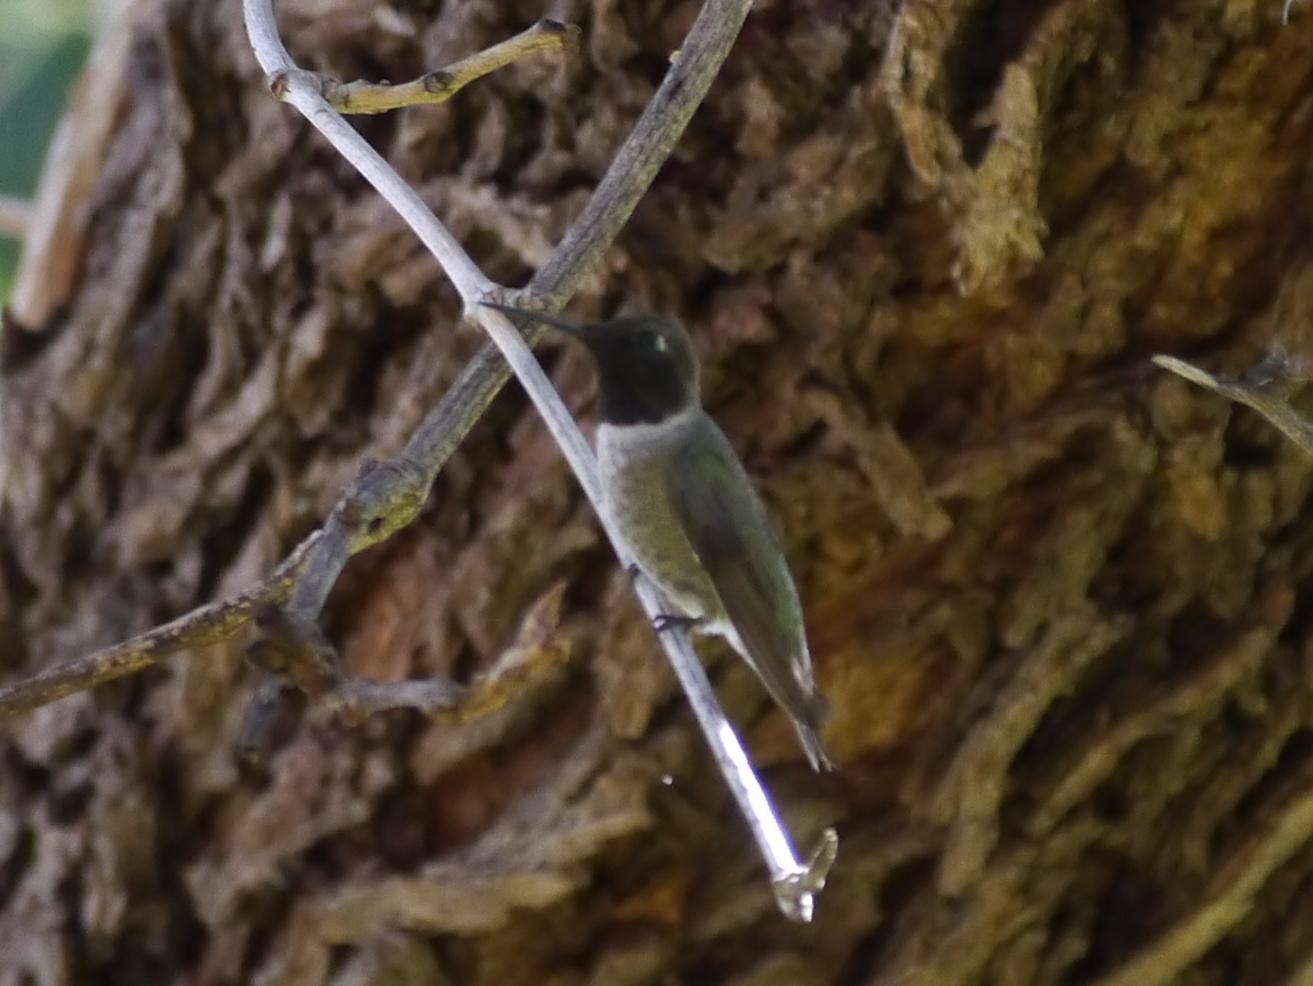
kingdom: Animalia
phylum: Chordata
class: Aves
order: Apodiformes
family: Trochilidae
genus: Archilochus
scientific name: Archilochus alexandri
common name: Black-chinned hummingbird
